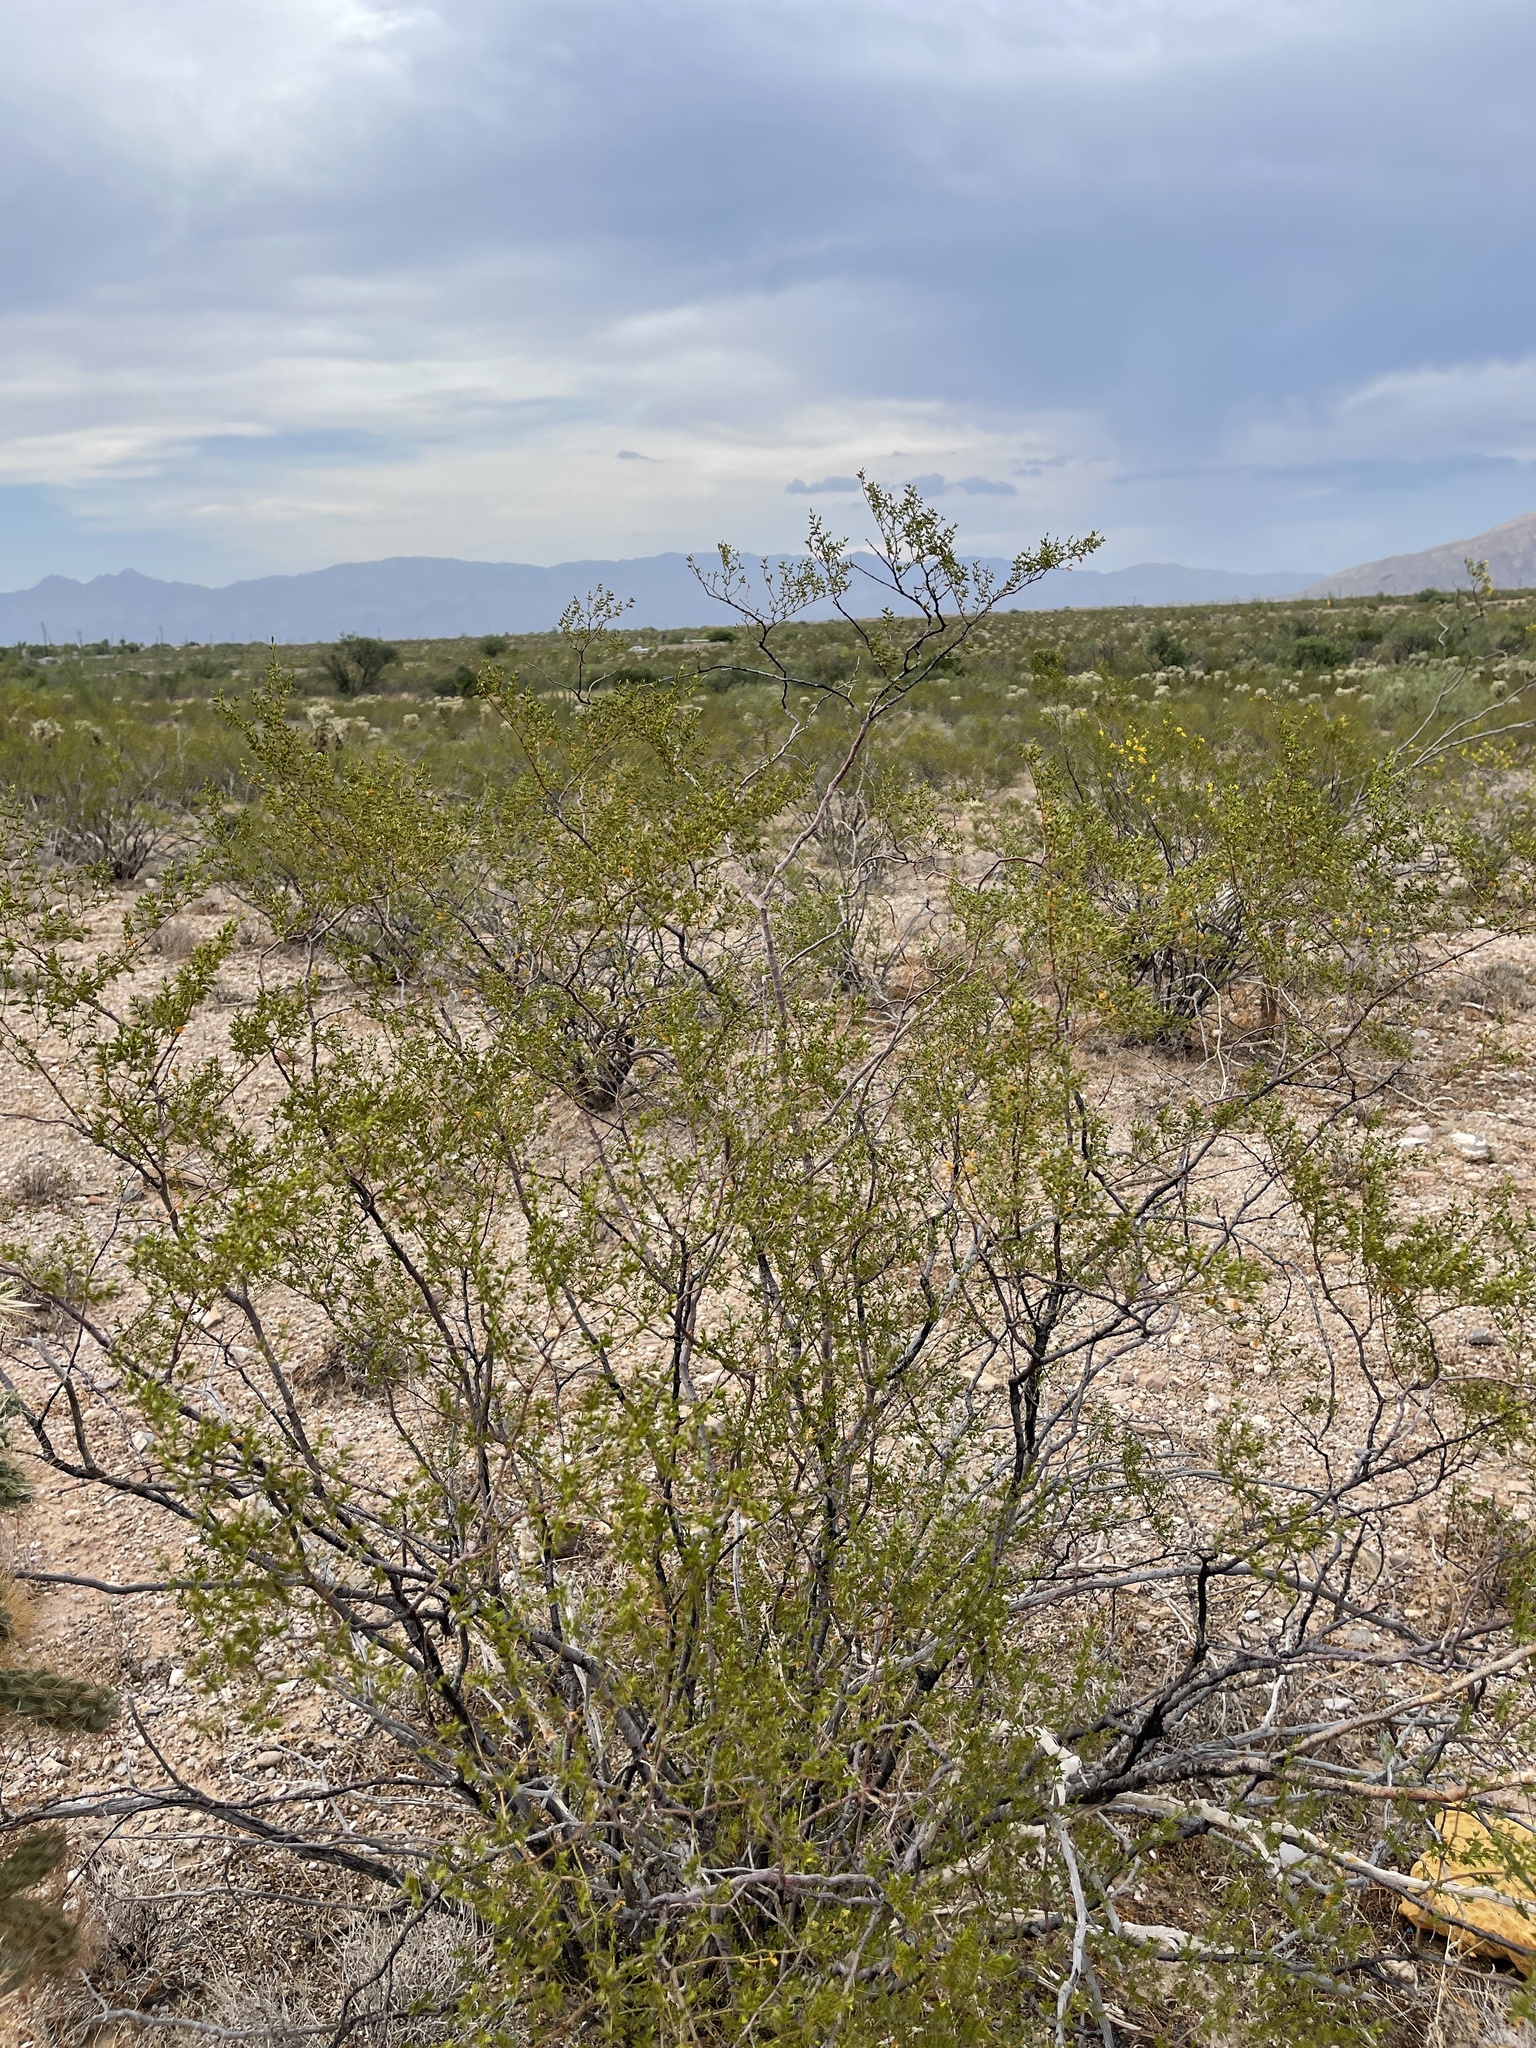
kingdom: Plantae
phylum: Tracheophyta
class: Magnoliopsida
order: Zygophyllales
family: Zygophyllaceae
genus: Larrea
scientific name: Larrea tridentata
